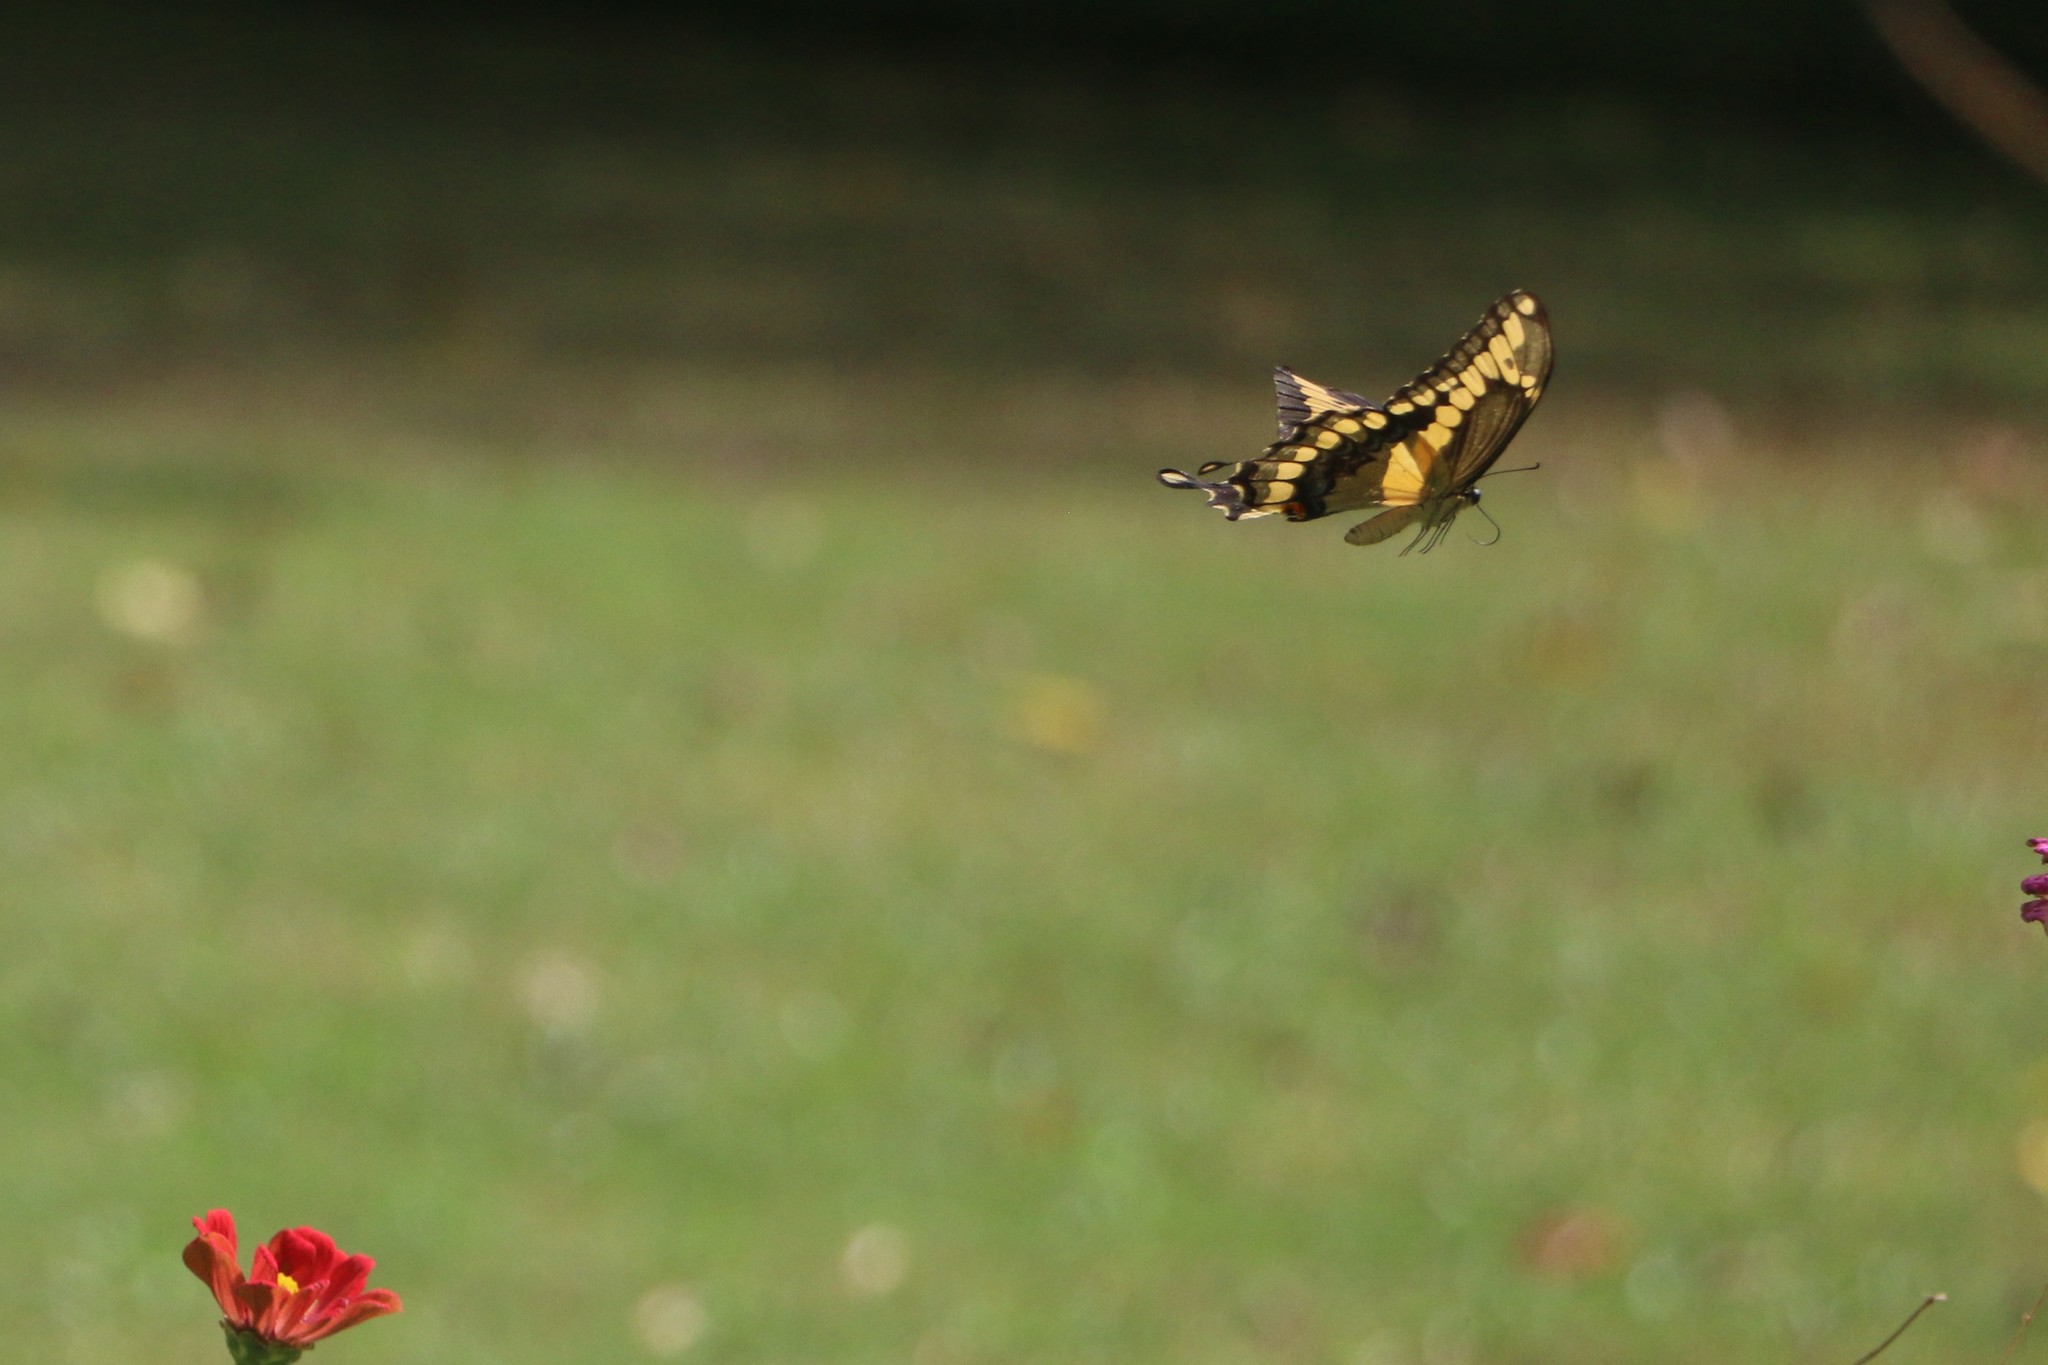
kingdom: Animalia
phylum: Arthropoda
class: Insecta
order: Lepidoptera
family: Papilionidae
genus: Papilio
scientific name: Papilio cresphontes
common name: Giant swallowtail
